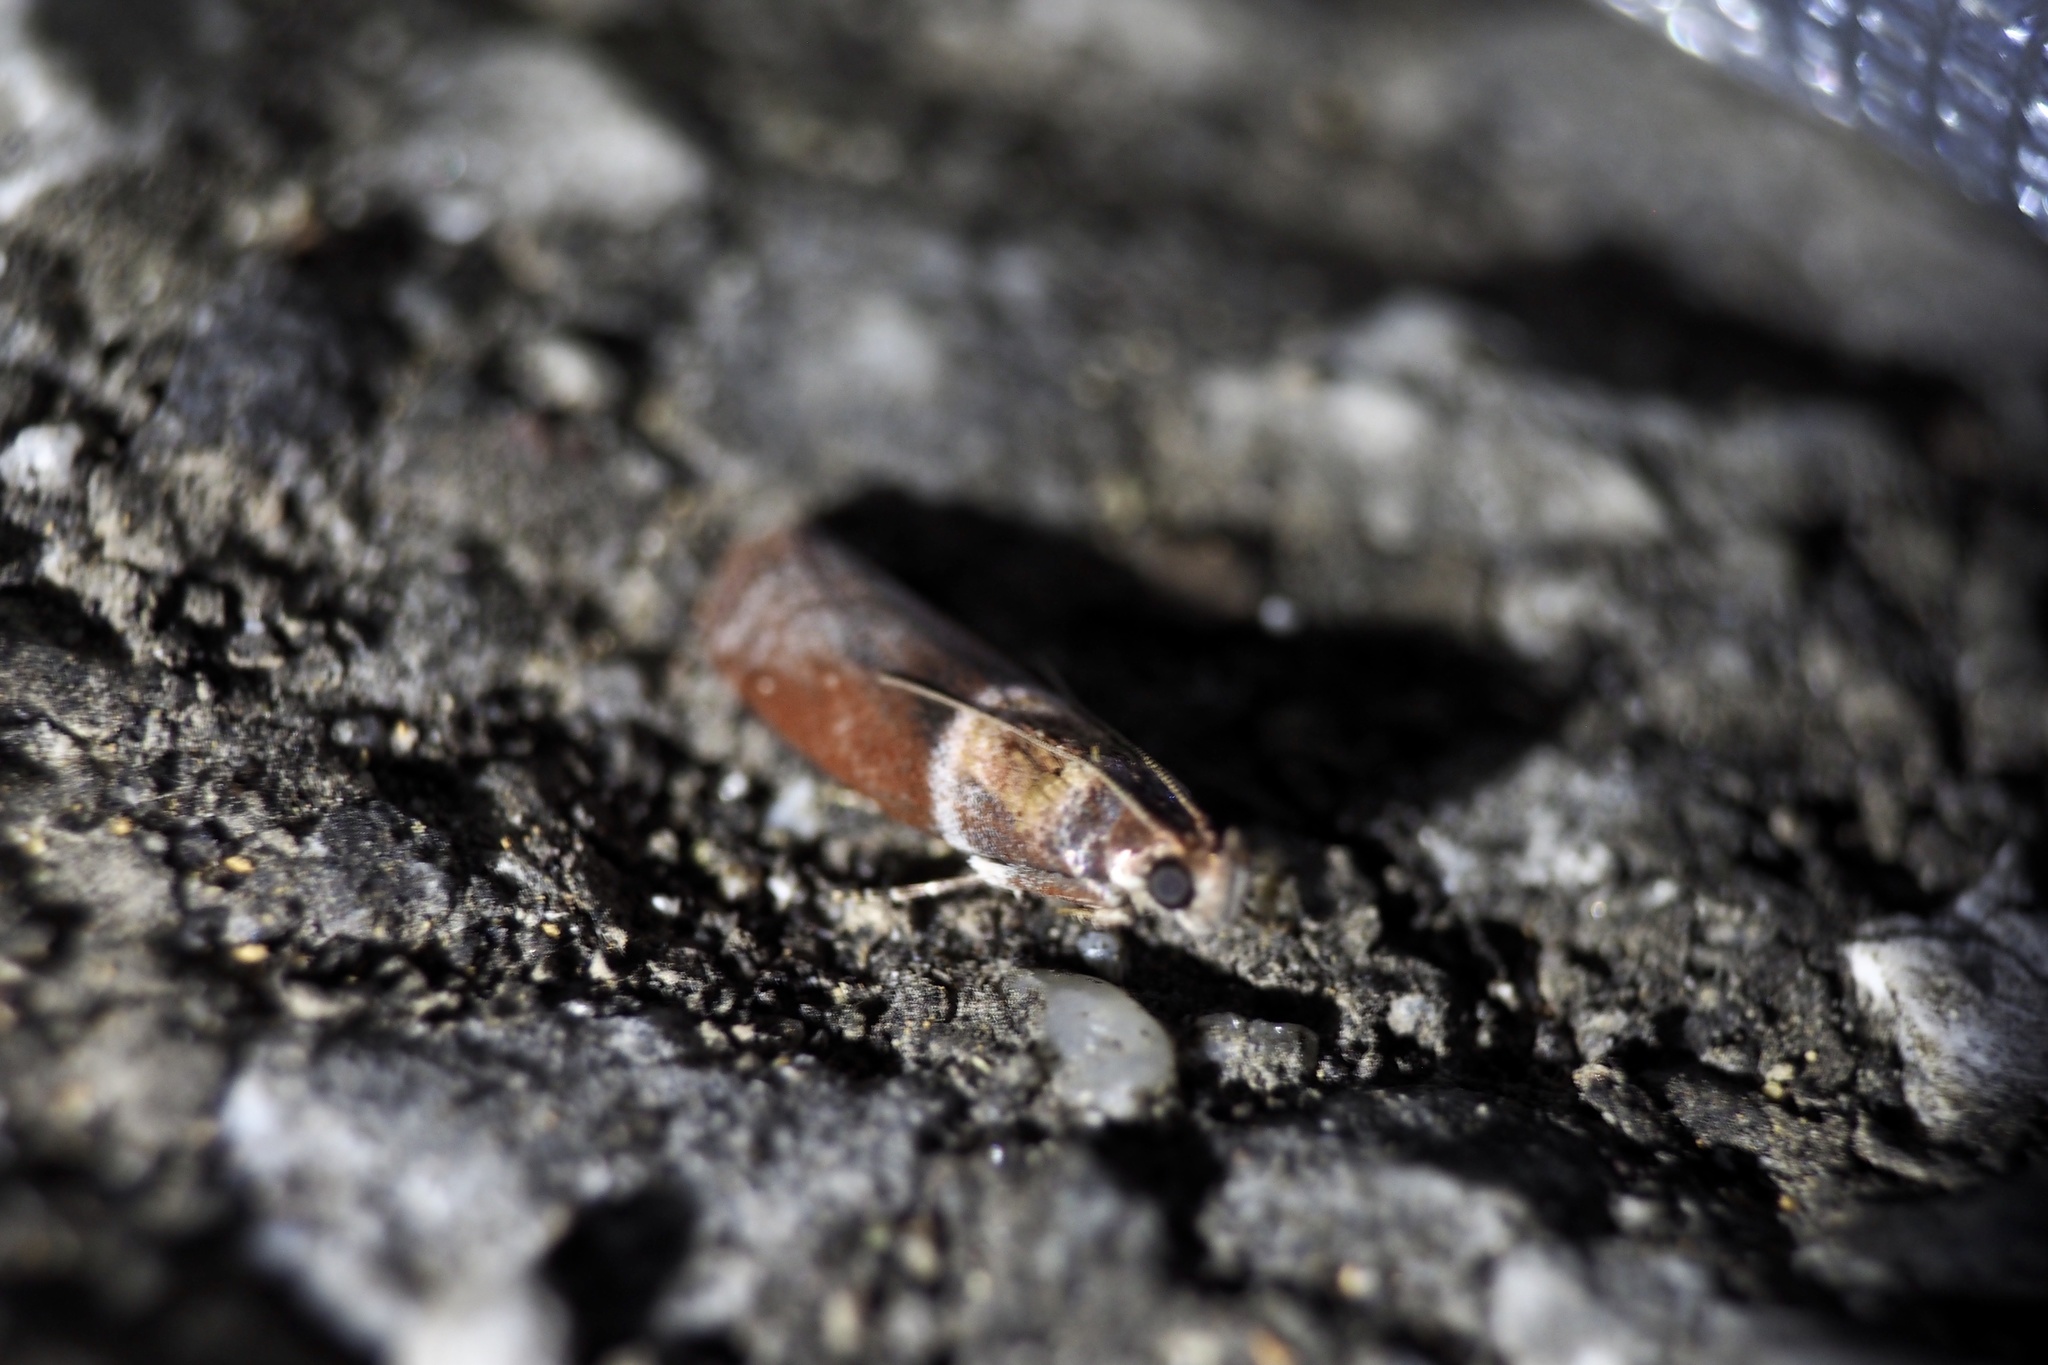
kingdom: Animalia
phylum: Arthropoda
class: Insecta
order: Lepidoptera
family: Pyralidae
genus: Addyme
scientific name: Addyme
